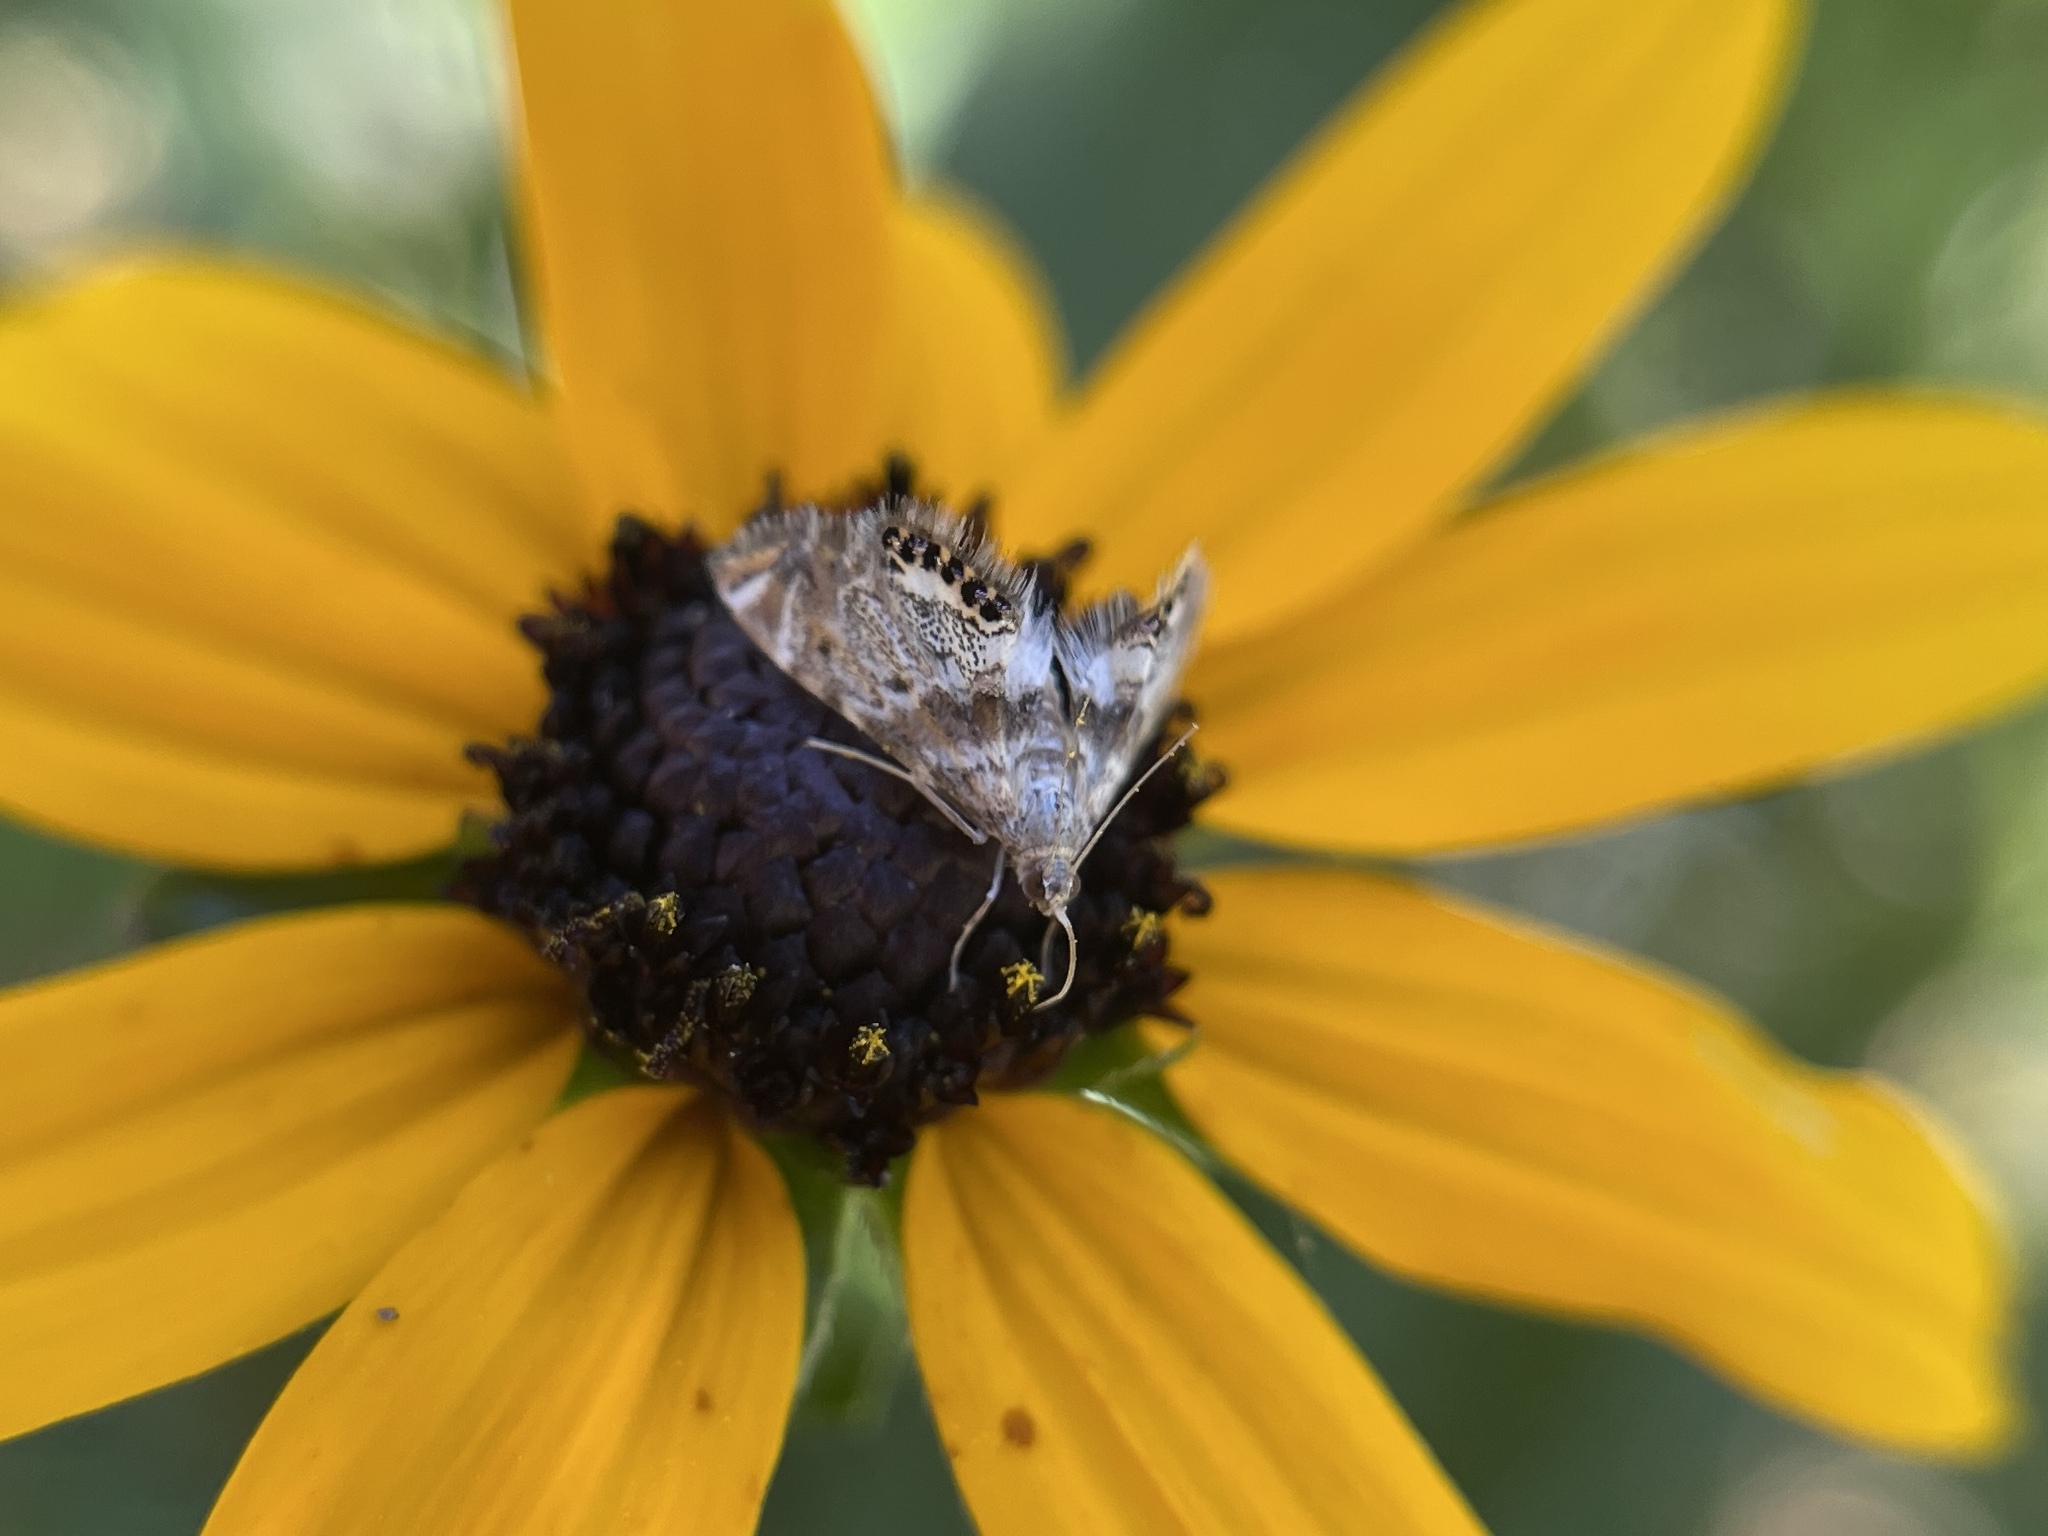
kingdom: Animalia
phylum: Arthropoda
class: Insecta
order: Lepidoptera
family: Crambidae
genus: Petrophila
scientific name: Petrophila fulicalis
